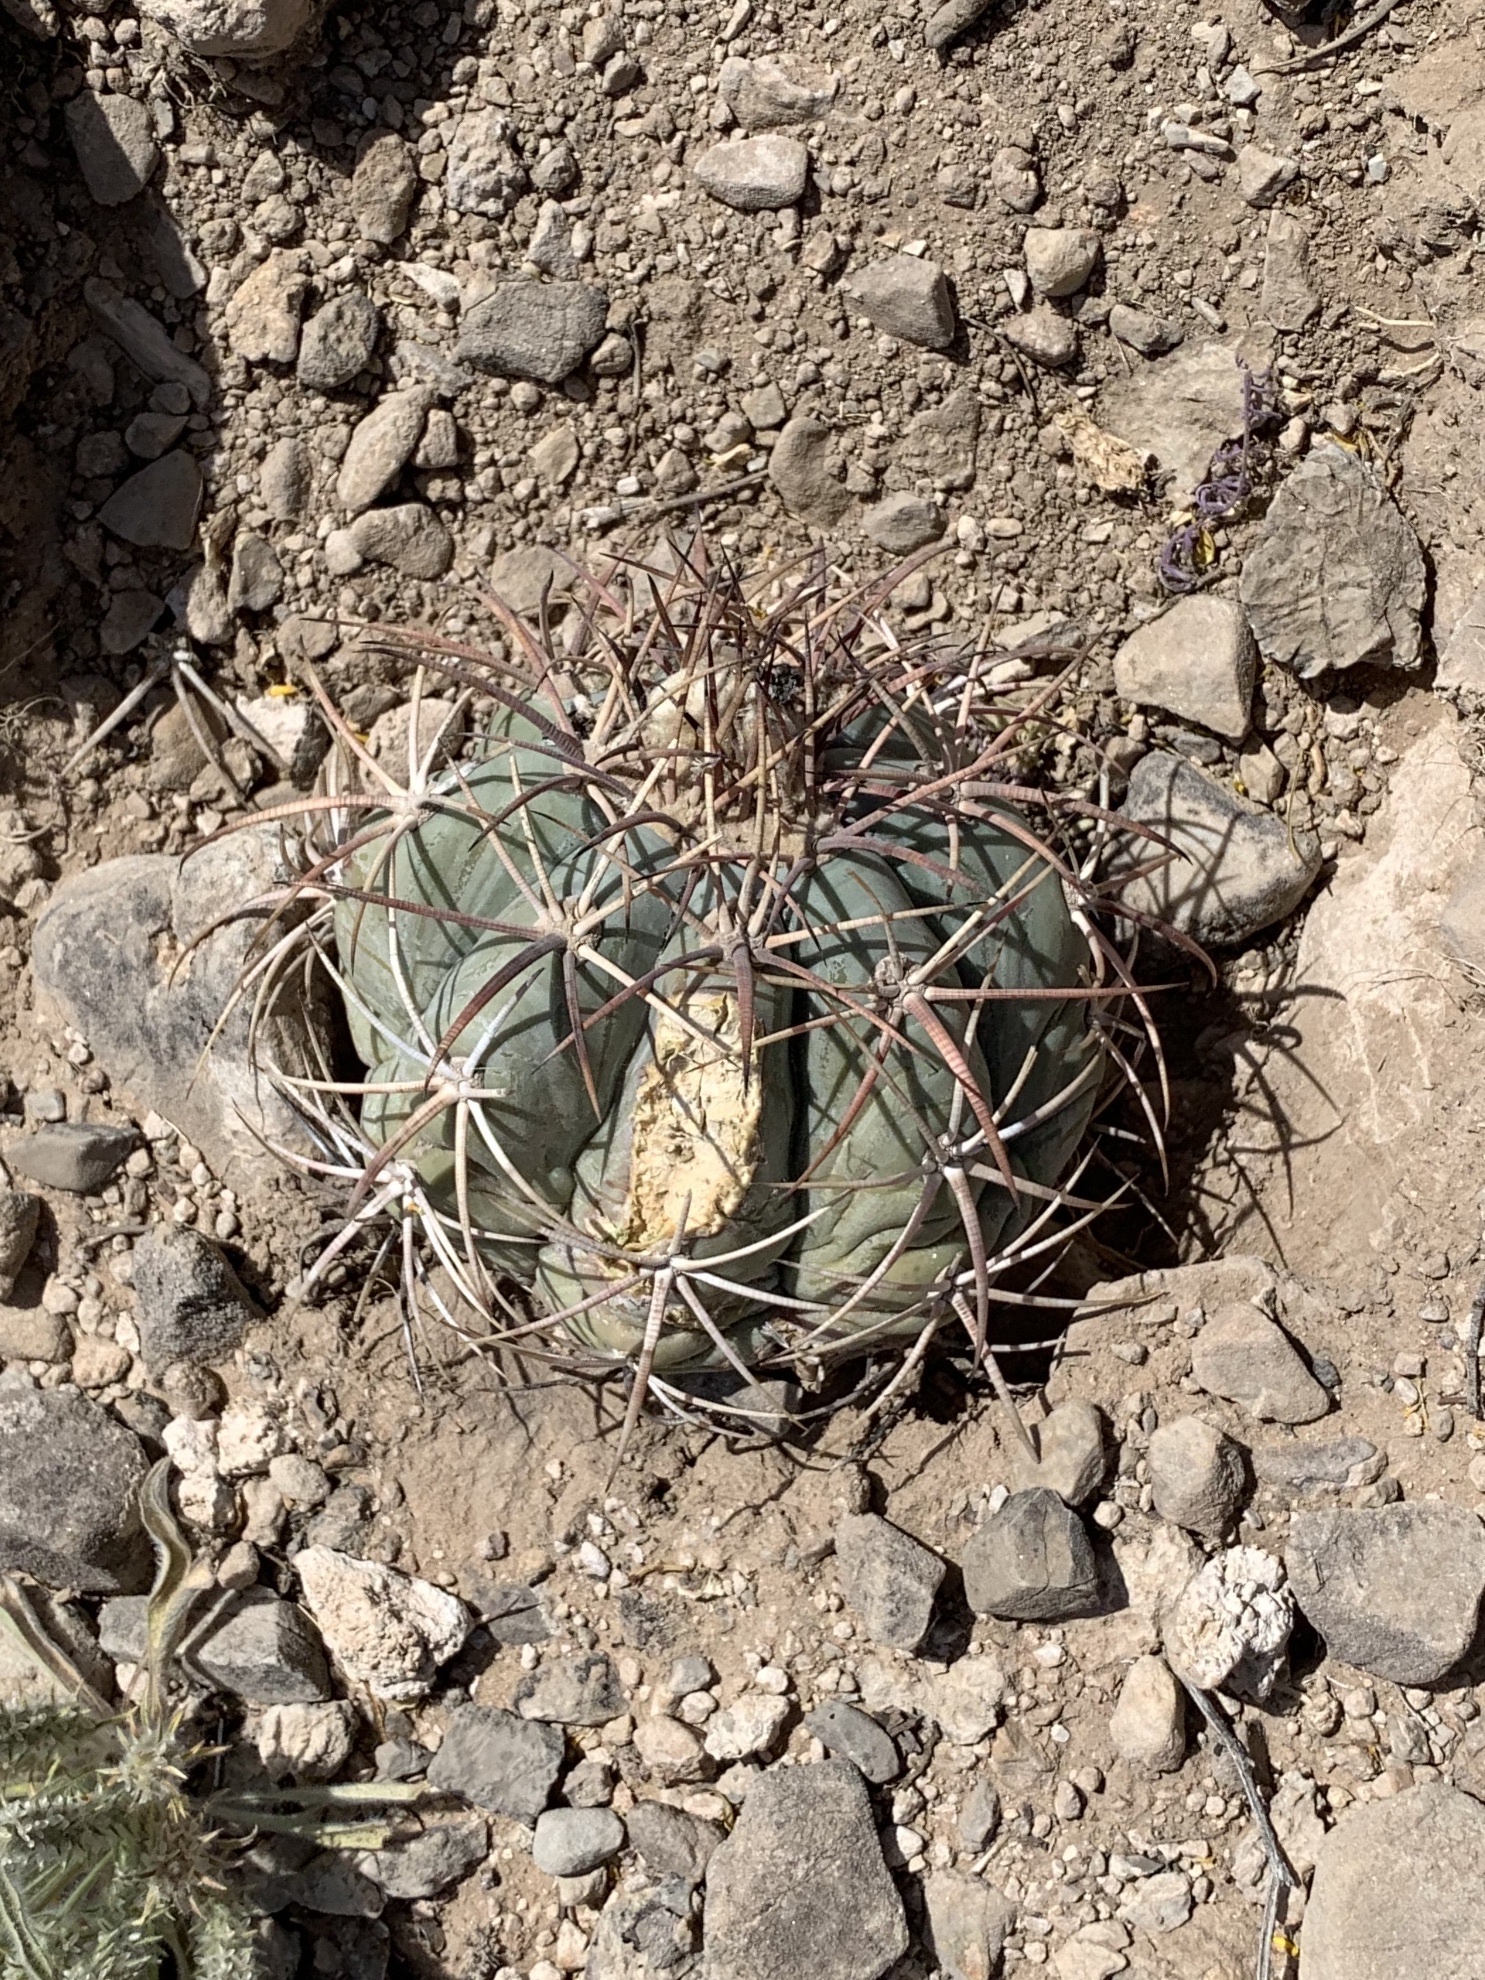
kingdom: Plantae
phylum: Tracheophyta
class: Magnoliopsida
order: Caryophyllales
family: Cactaceae
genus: Echinocactus
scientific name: Echinocactus horizonthalonius
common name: Devilshead
